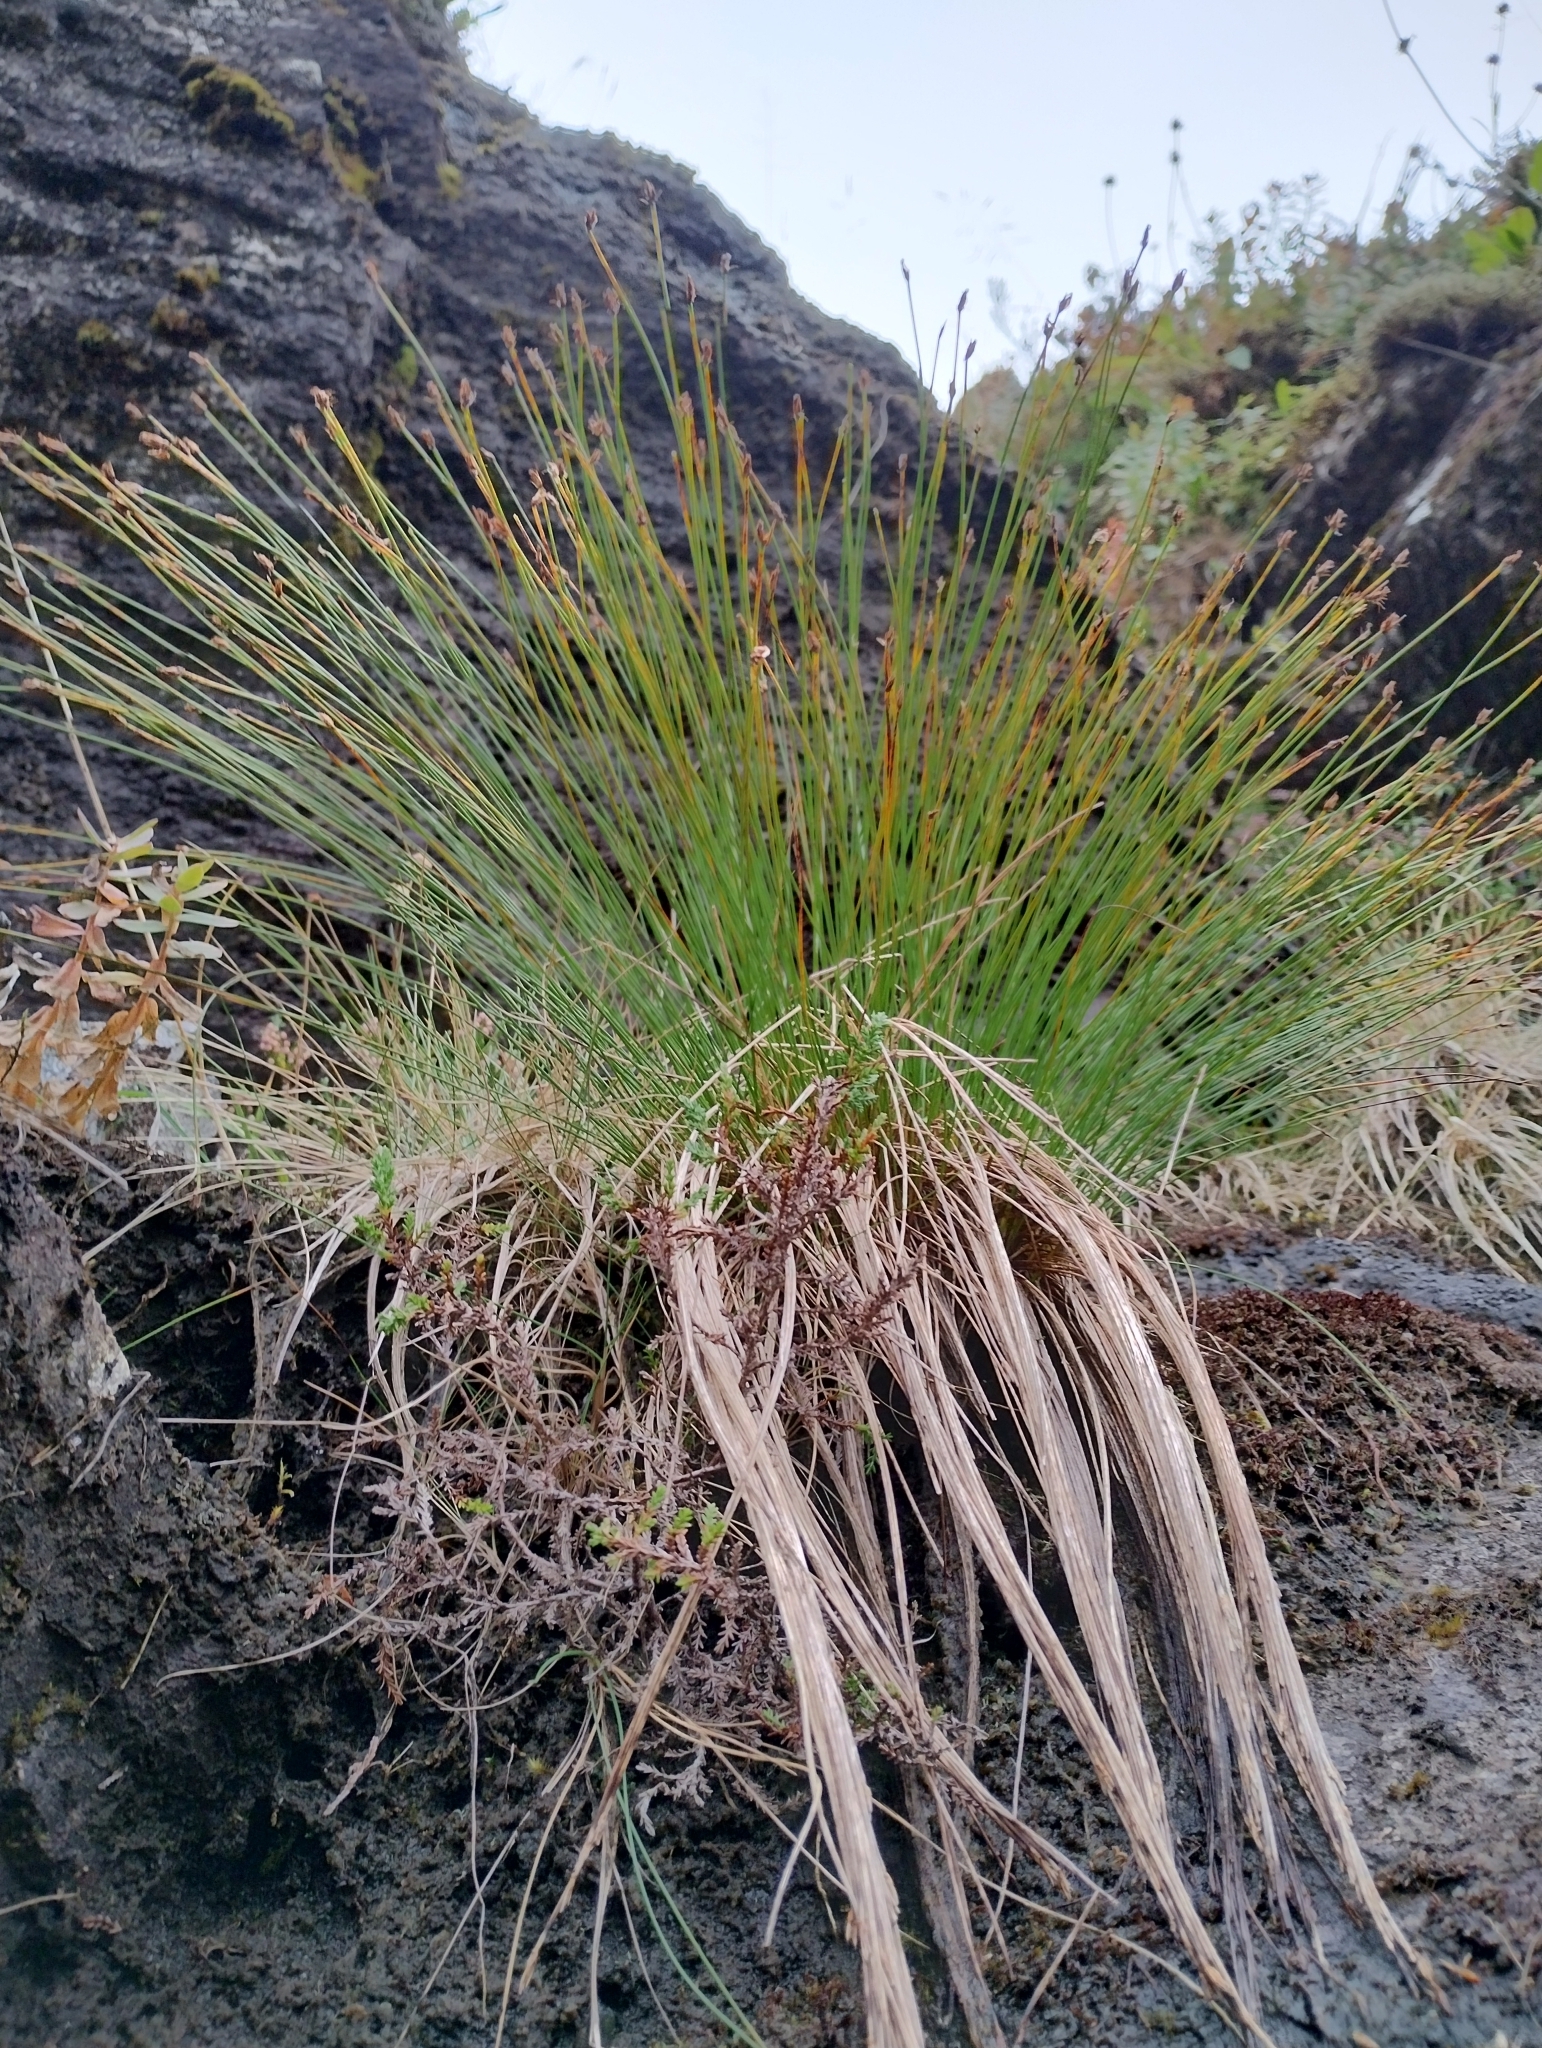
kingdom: Plantae
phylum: Tracheophyta
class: Liliopsida
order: Poales
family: Cyperaceae
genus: Trichophorum
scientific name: Trichophorum cespitosum
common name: Cespitose bulrush
